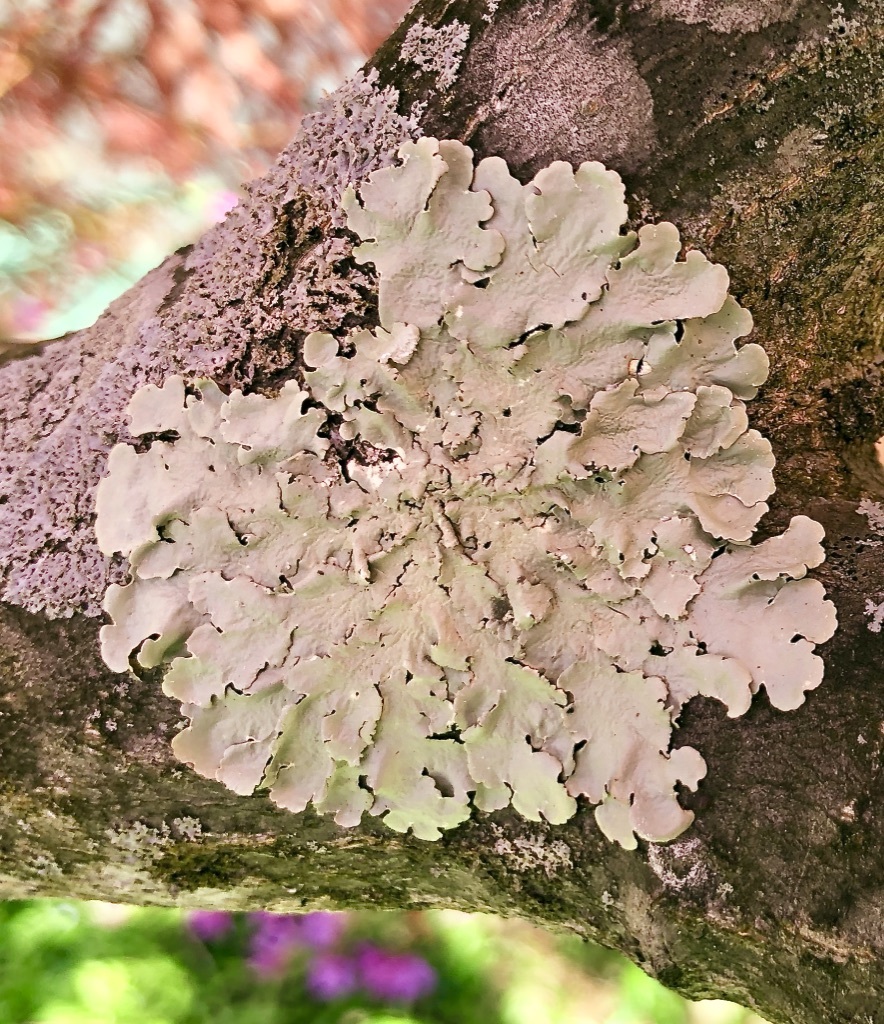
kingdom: Fungi
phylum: Ascomycota
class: Lecanoromycetes
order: Lecanorales
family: Parmeliaceae
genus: Flavoparmelia
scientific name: Flavoparmelia caperata
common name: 40-mile per hour lichen
